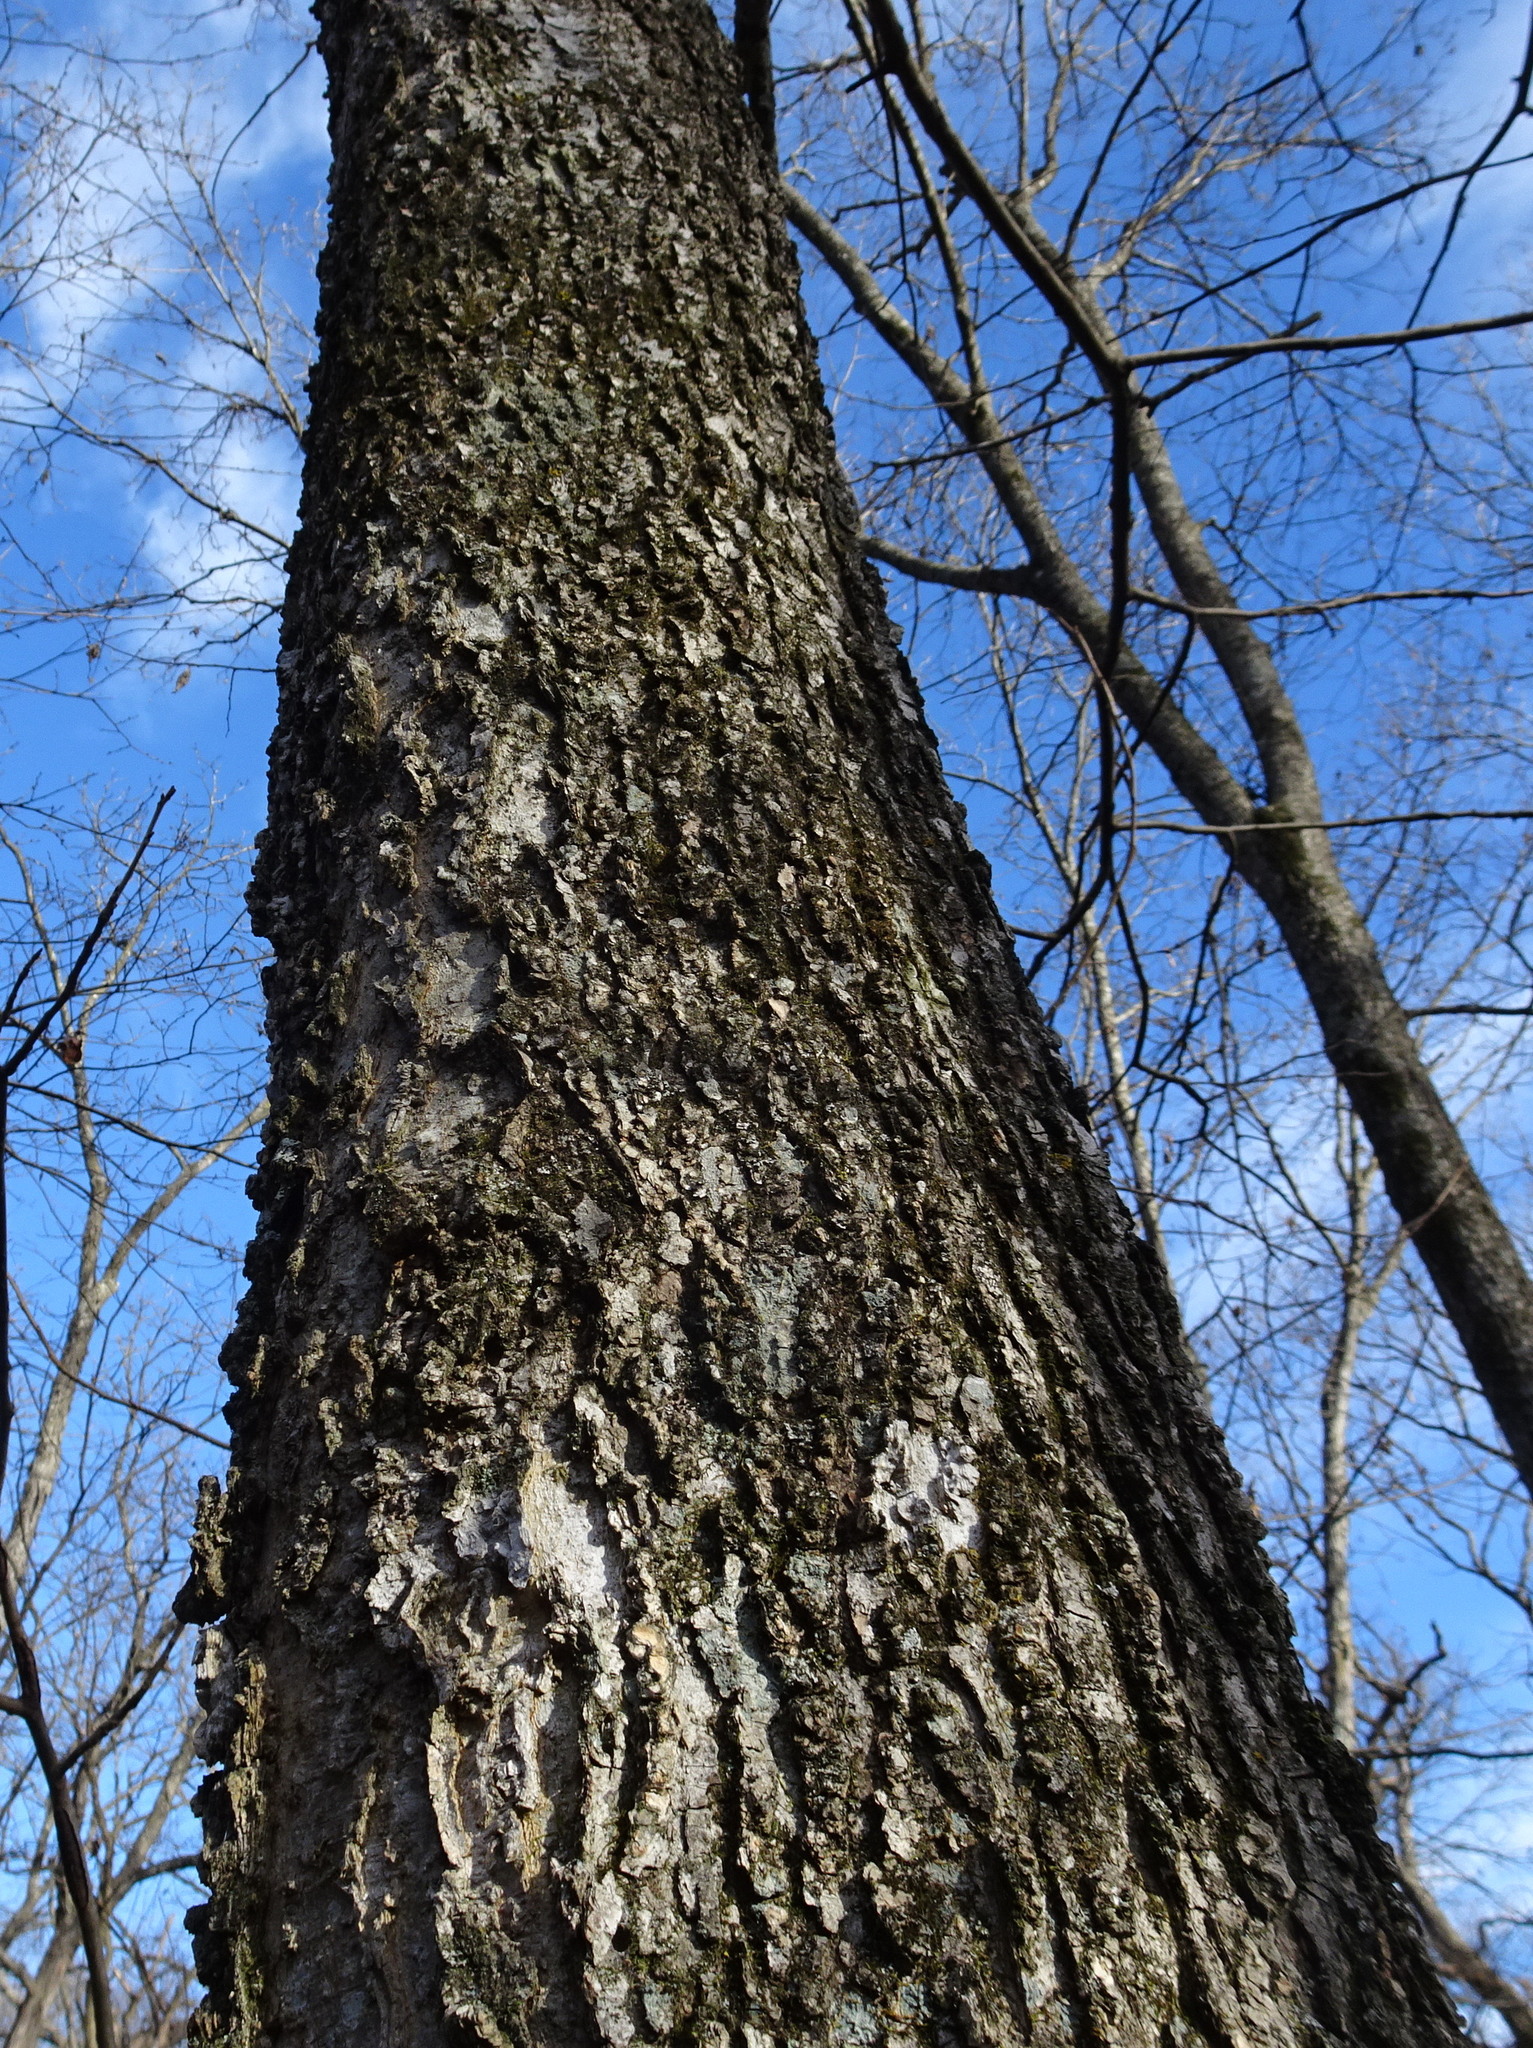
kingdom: Plantae
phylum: Tracheophyta
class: Magnoliopsida
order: Rosales
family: Cannabaceae
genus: Celtis
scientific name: Celtis occidentalis
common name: Common hackberry
